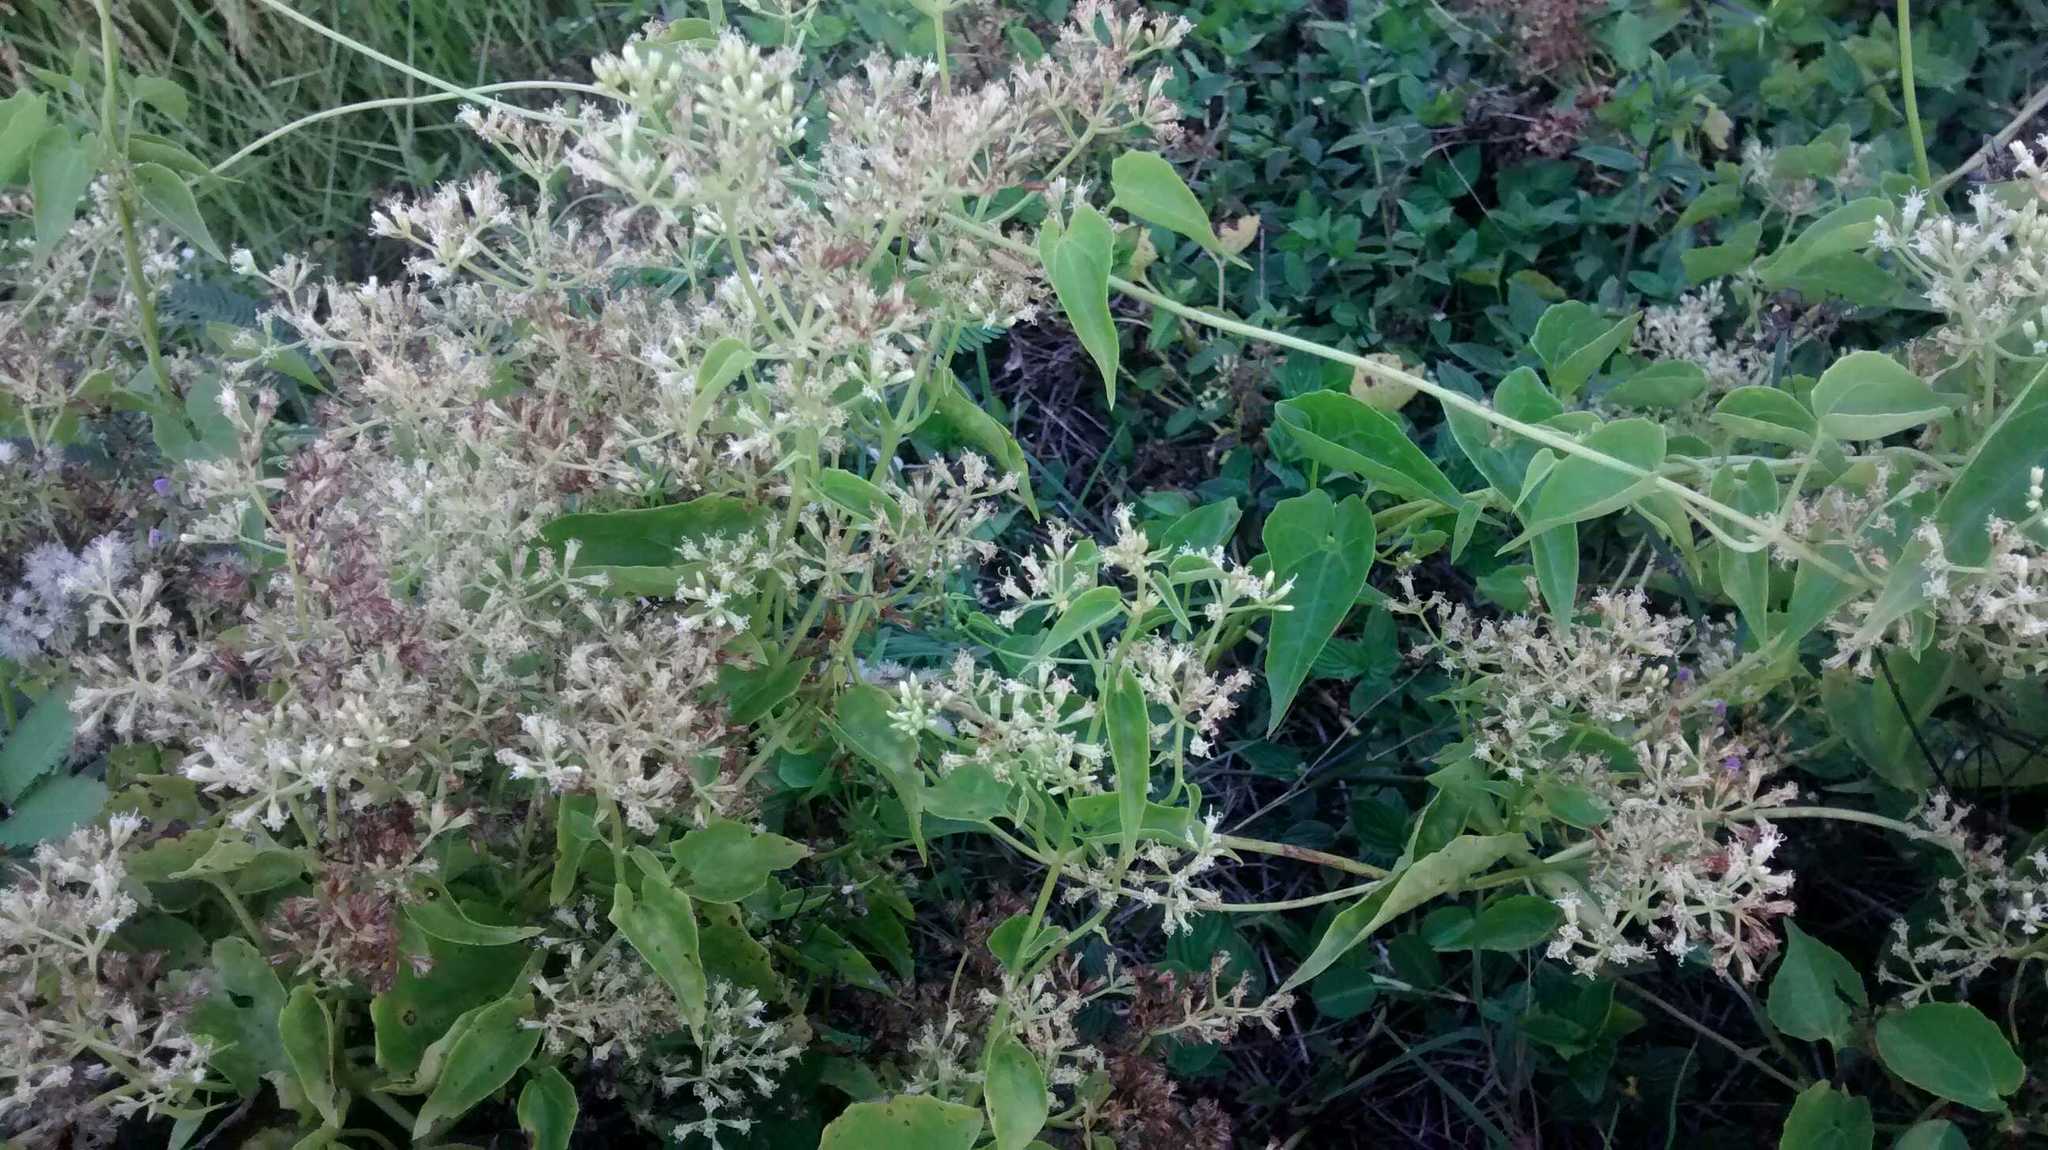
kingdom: Plantae
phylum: Tracheophyta
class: Magnoliopsida
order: Asterales
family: Asteraceae
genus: Mikania
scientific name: Mikania scandens
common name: Climbing hempvine
